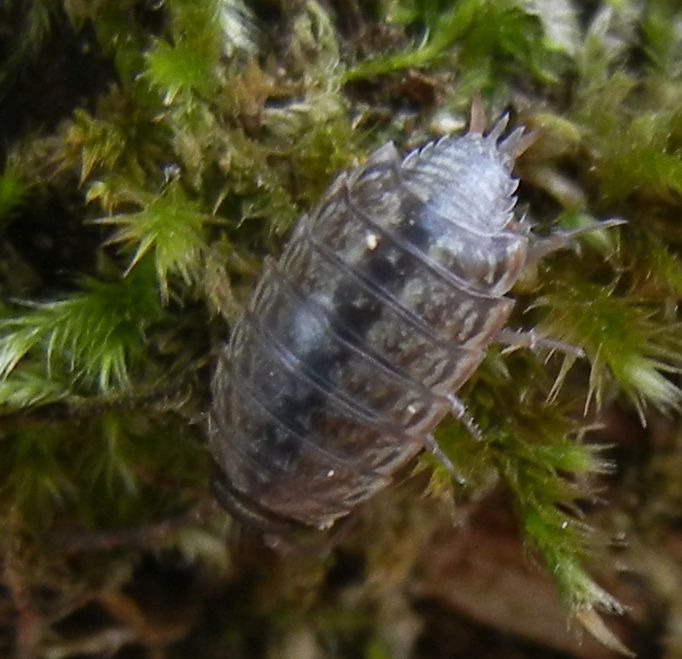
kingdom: Animalia
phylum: Arthropoda
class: Malacostraca
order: Isopoda
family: Philosciidae
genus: Philoscia
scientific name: Philoscia muscorum
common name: Common striped woodlouse
